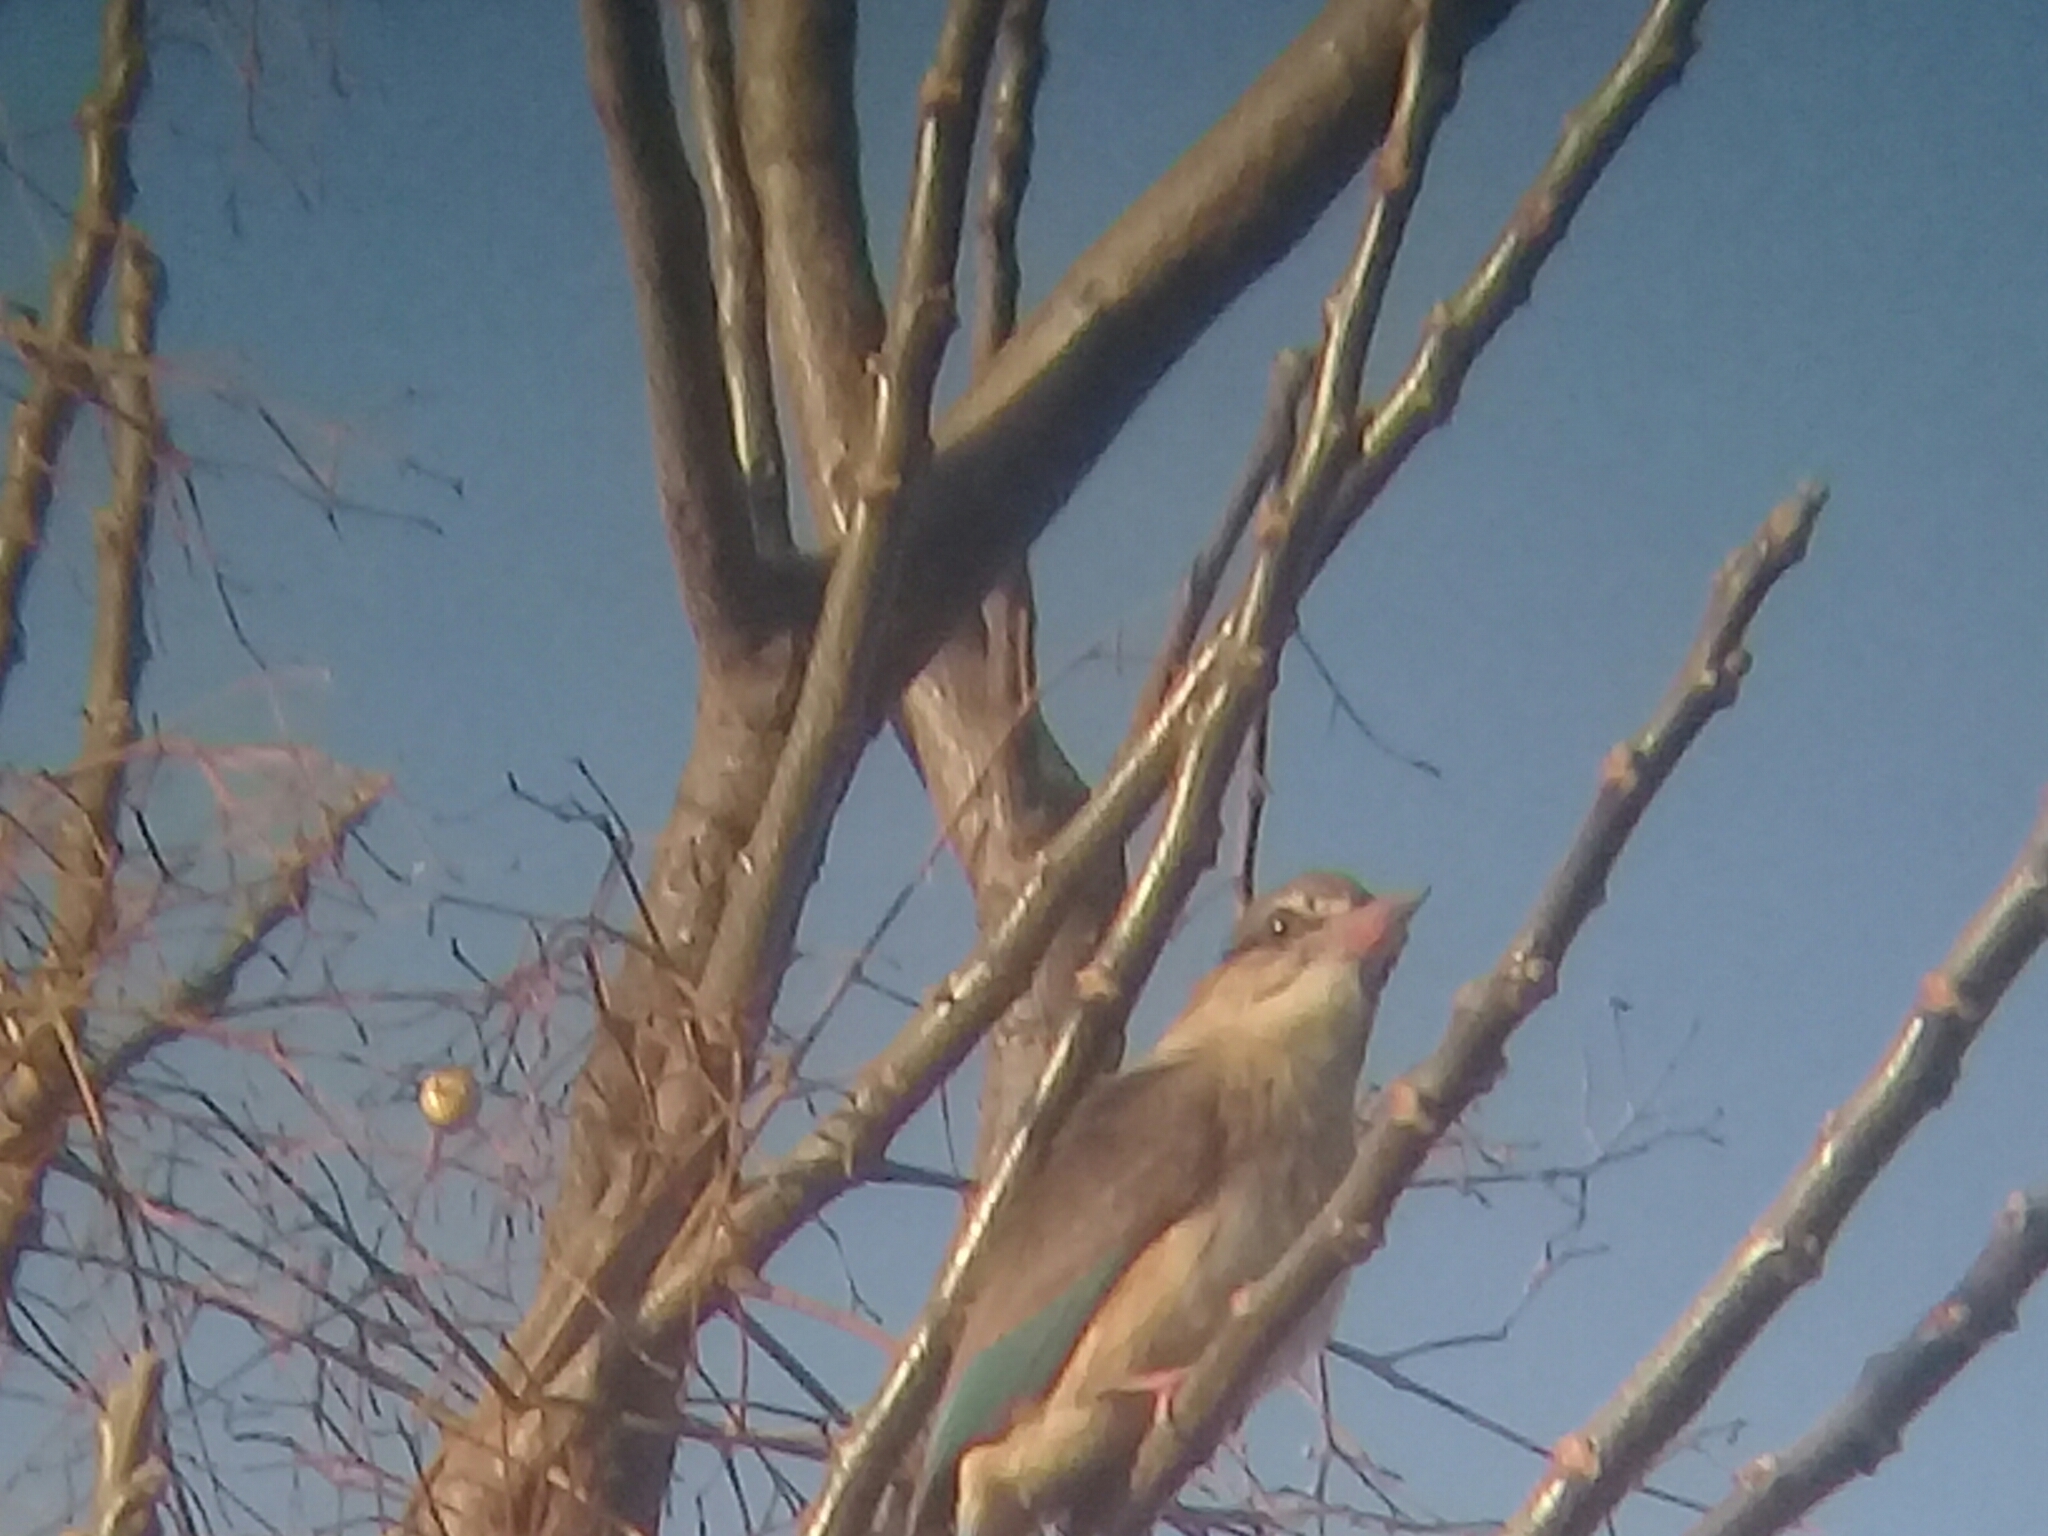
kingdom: Animalia
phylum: Chordata
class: Aves
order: Coraciiformes
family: Alcedinidae
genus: Halcyon
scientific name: Halcyon albiventris
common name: Brown-hooded kingfisher
